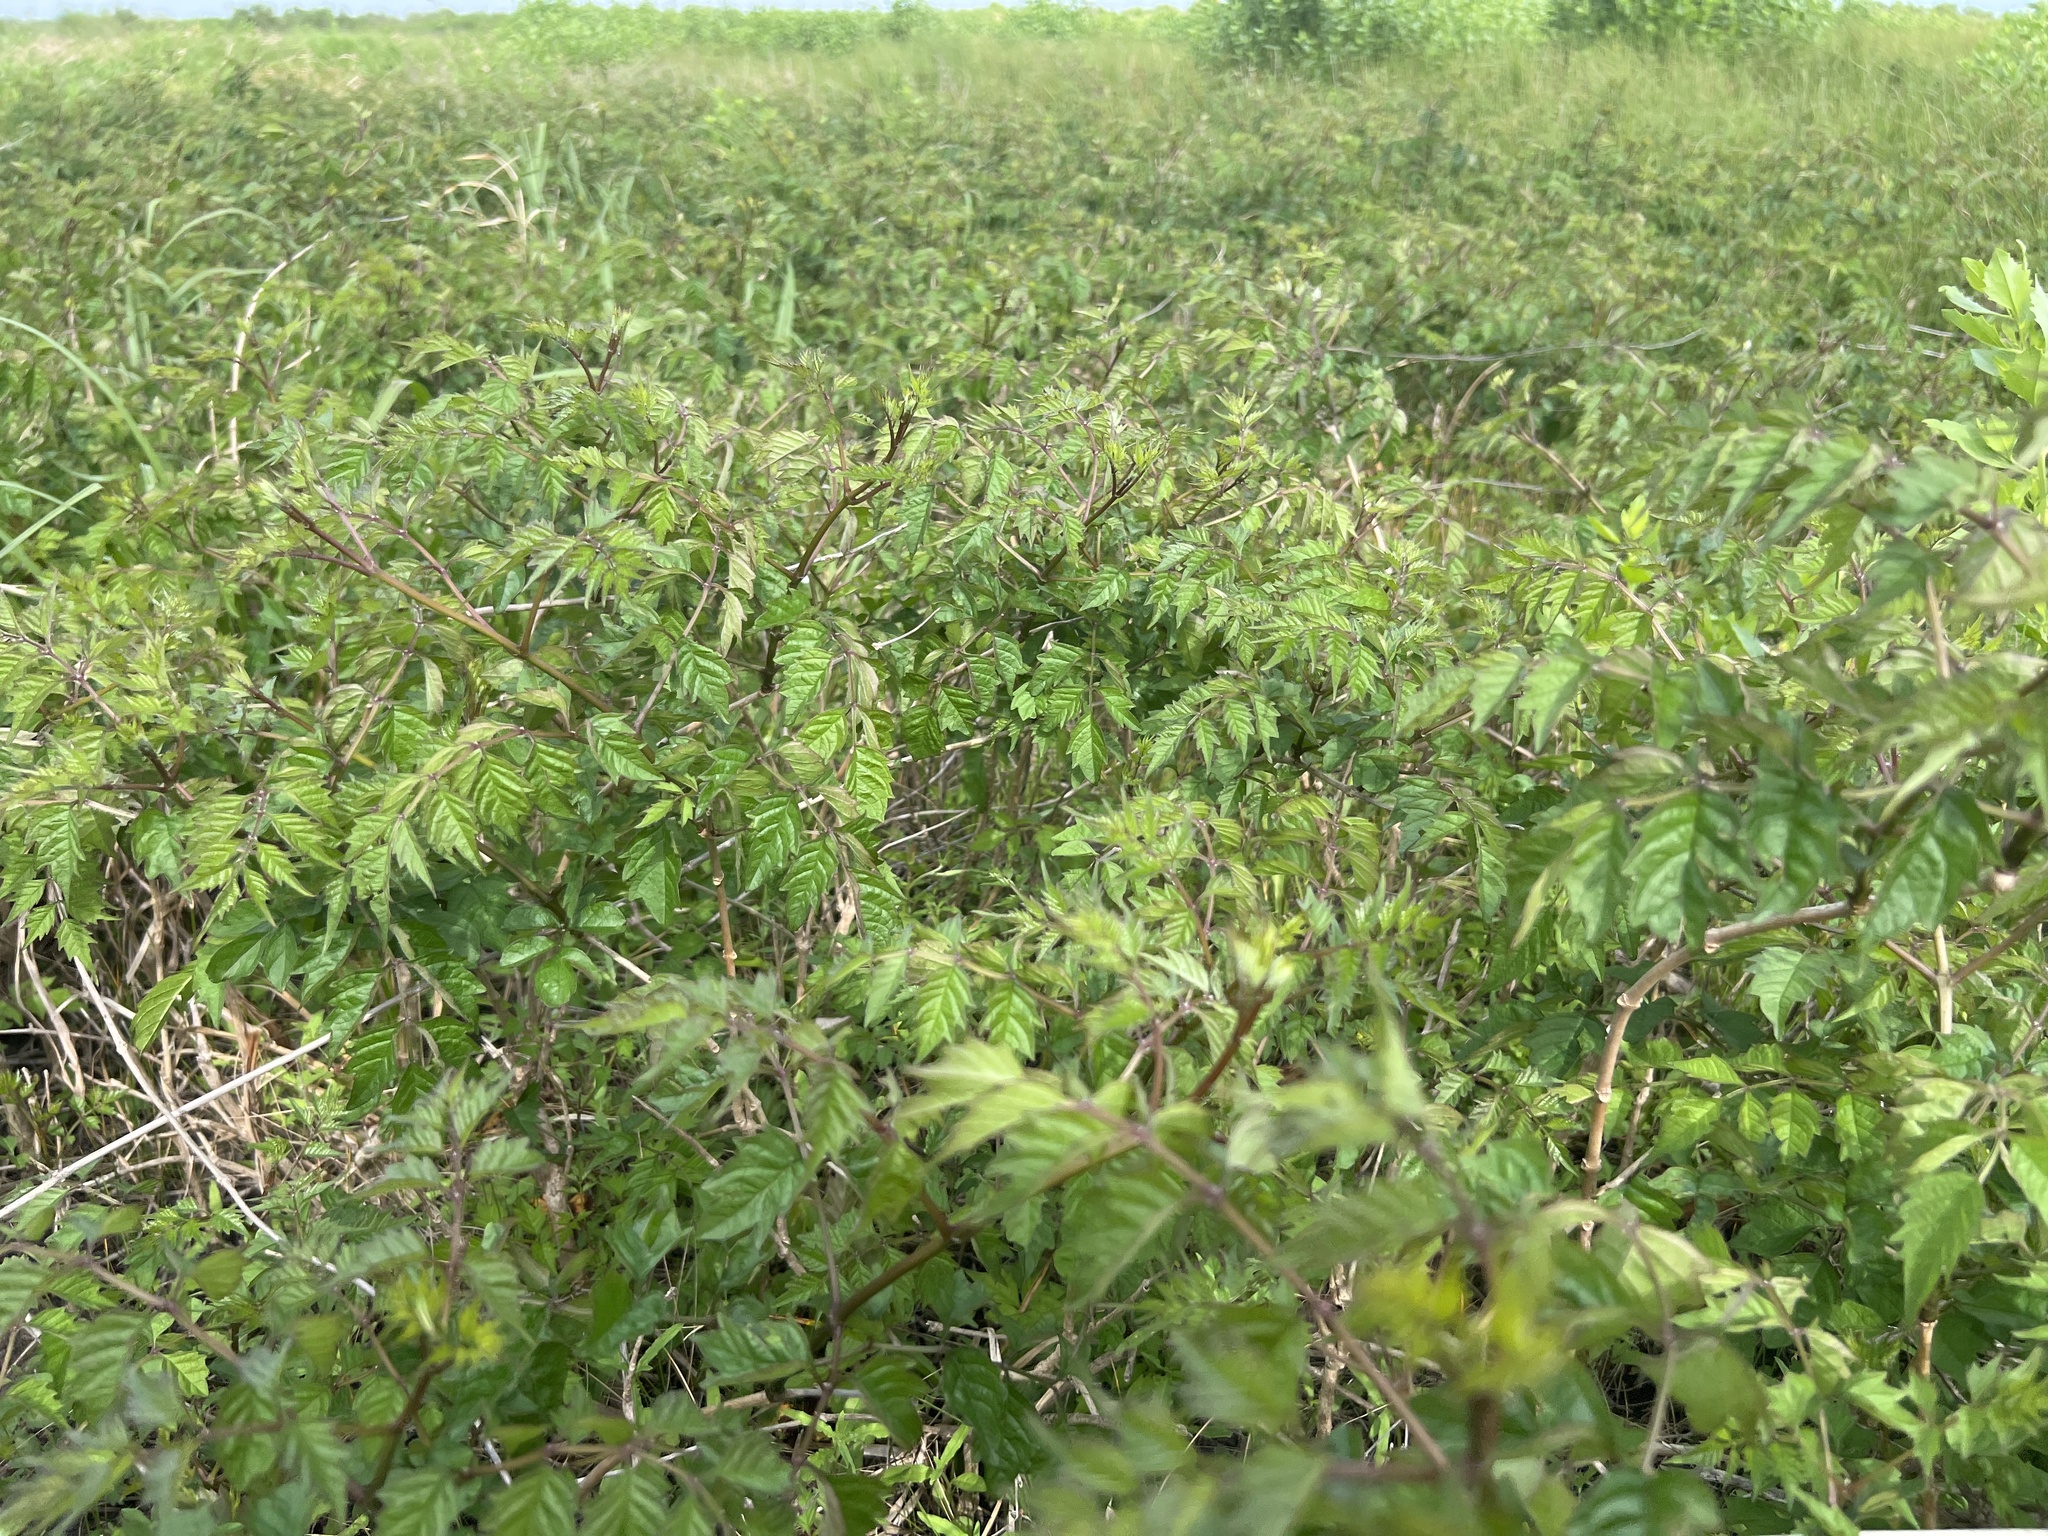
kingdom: Plantae
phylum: Tracheophyta
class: Magnoliopsida
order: Lamiales
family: Bignoniaceae
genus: Campsis
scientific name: Campsis radicans
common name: Trumpet-creeper
